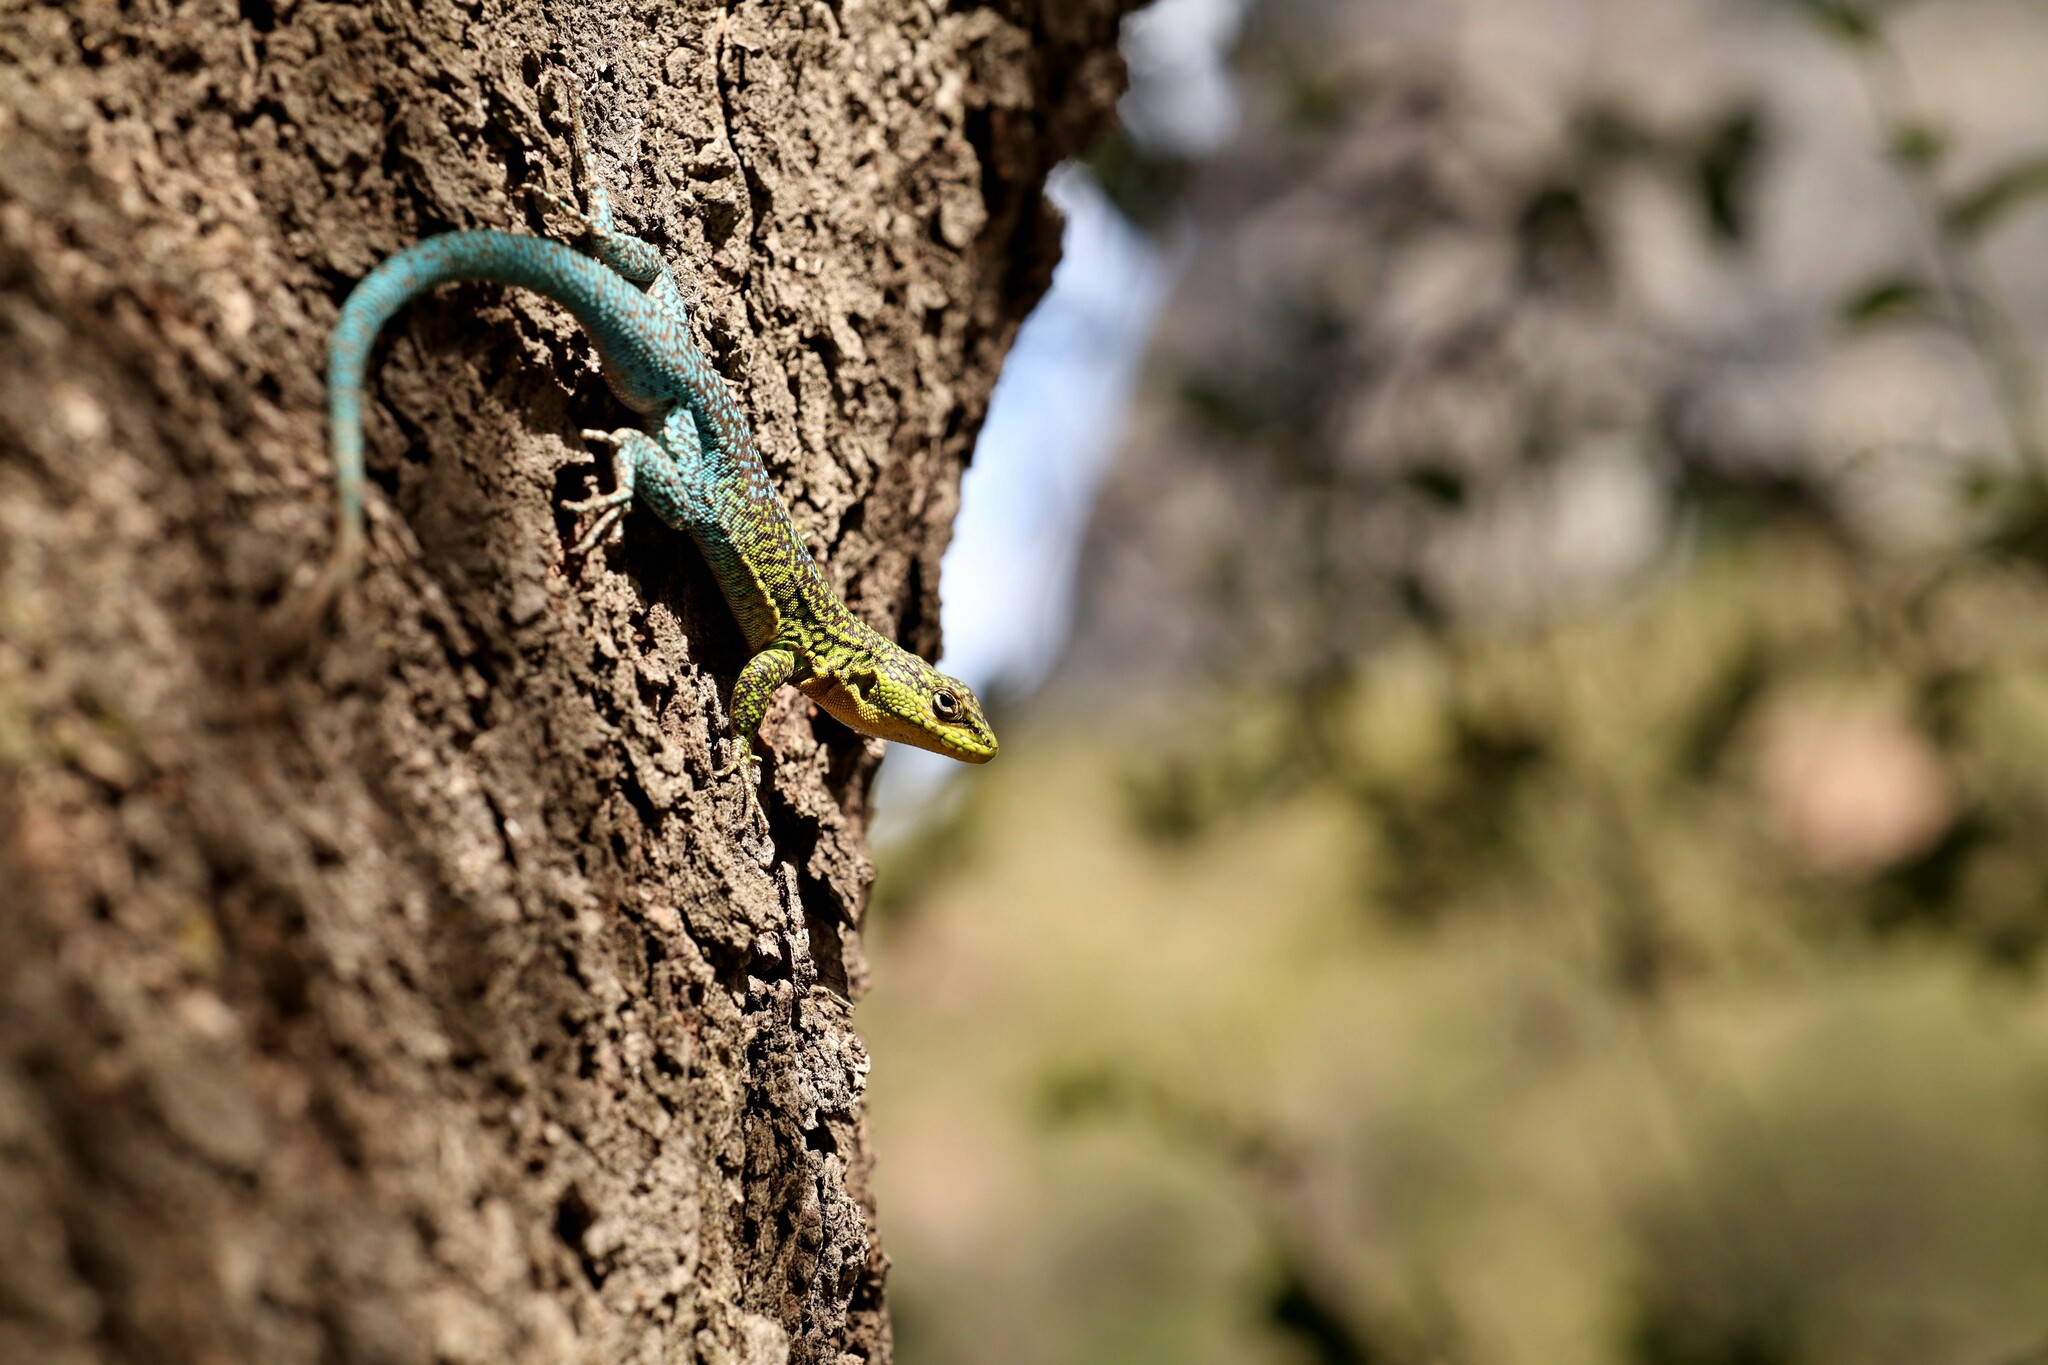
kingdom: Animalia
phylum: Chordata
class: Squamata
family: Liolaemidae
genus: Liolaemus
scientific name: Liolaemus tenuis
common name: Thin tree iguana
